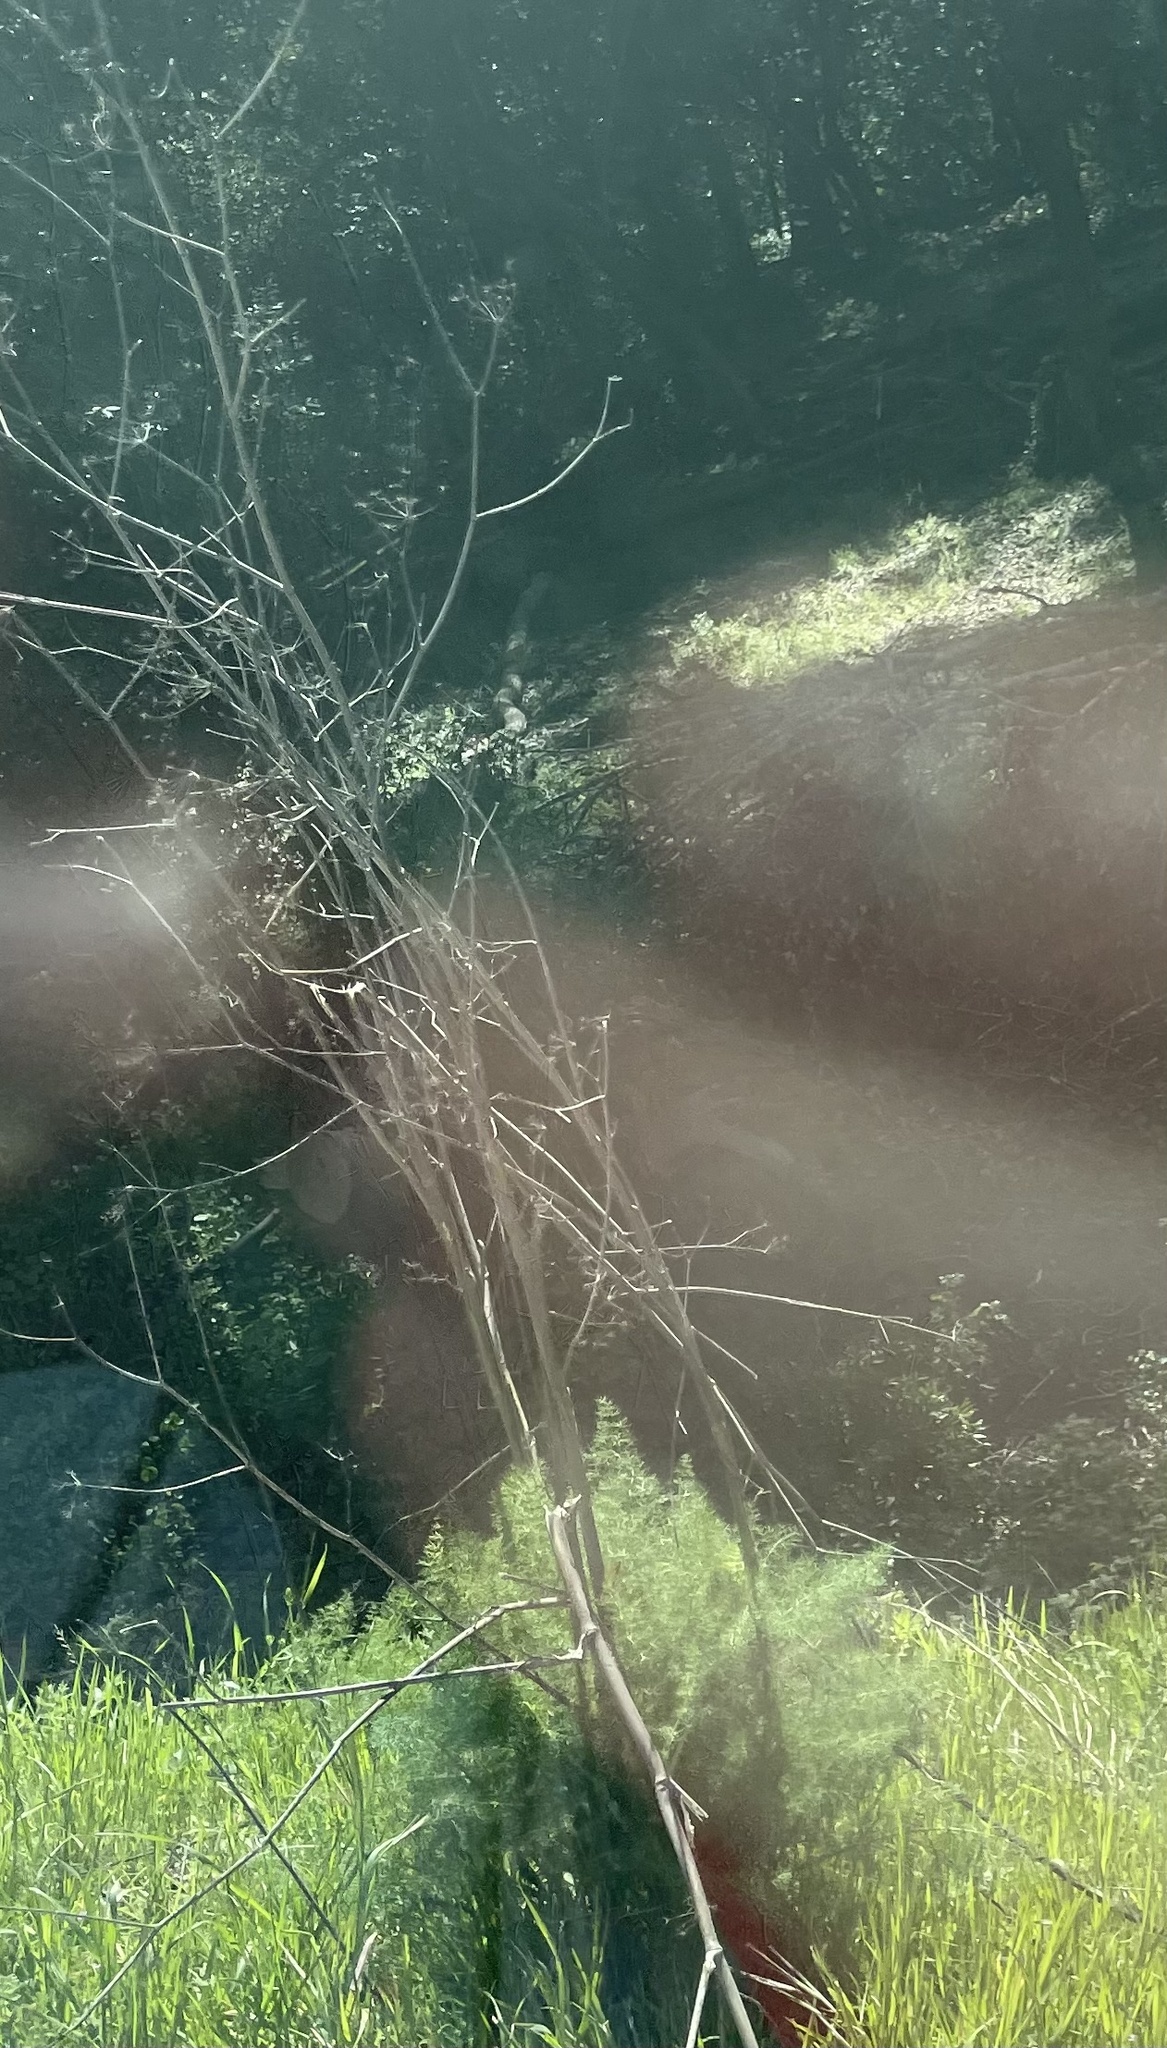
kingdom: Plantae
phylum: Tracheophyta
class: Magnoliopsida
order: Apiales
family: Apiaceae
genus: Foeniculum
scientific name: Foeniculum vulgare
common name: Fennel
